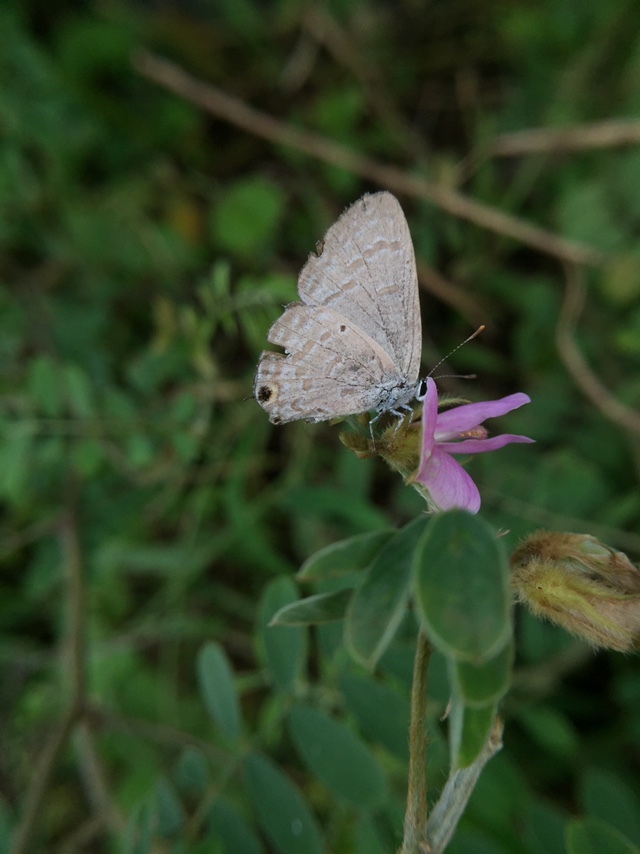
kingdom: Animalia
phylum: Arthropoda
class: Insecta
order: Lepidoptera
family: Lycaenidae
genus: Catochrysops
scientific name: Catochrysops strabo
